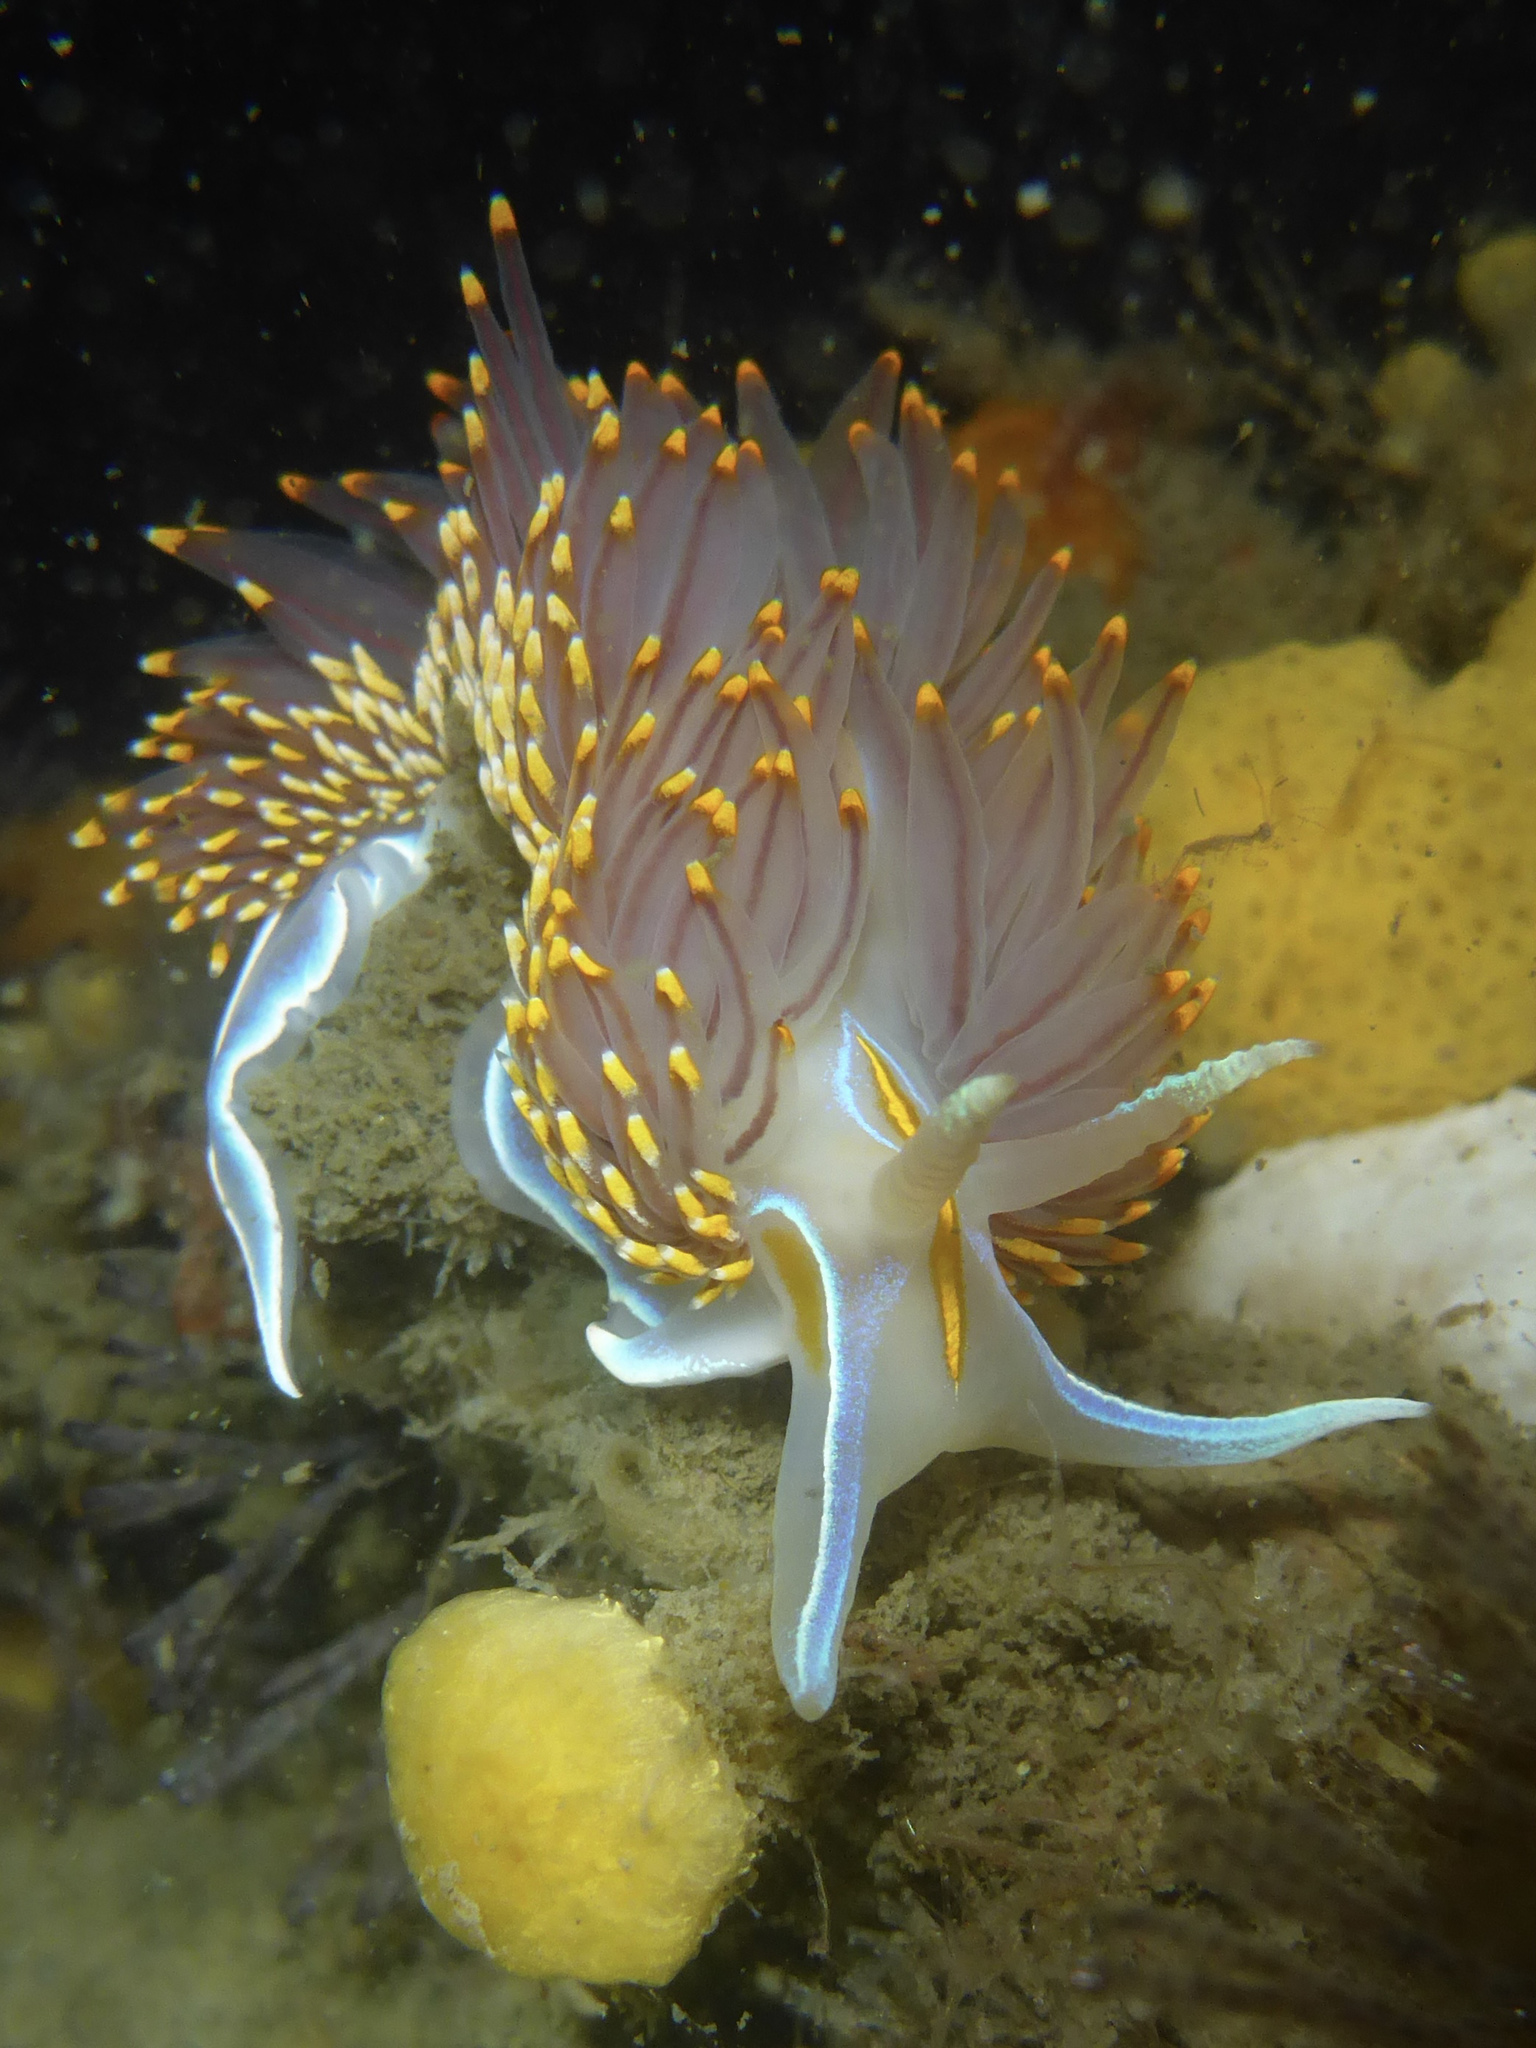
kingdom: Animalia
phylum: Mollusca
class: Gastropoda
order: Nudibranchia
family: Myrrhinidae
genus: Hermissenda
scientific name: Hermissenda opalescens
